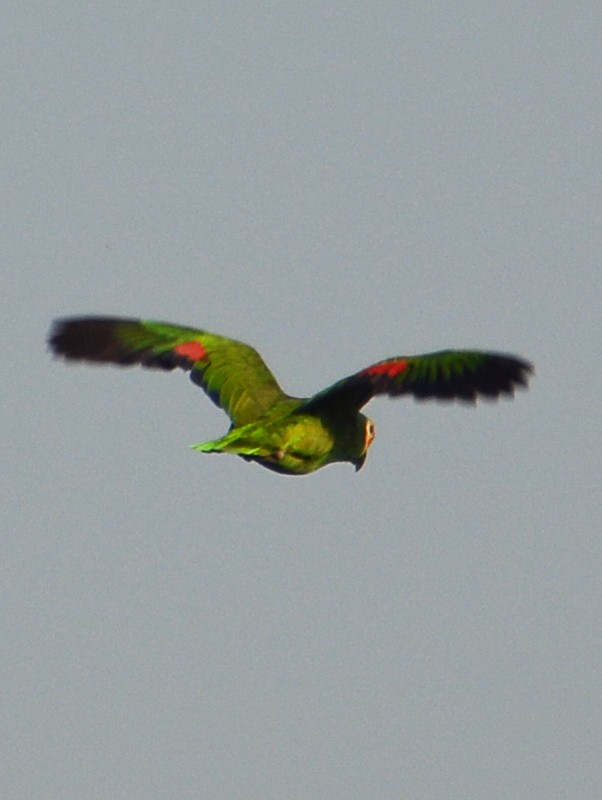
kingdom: Animalia
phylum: Chordata
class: Aves
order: Psittaciformes
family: Psittacidae
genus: Amazona
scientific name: Amazona autumnalis
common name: Red-lored amazon
